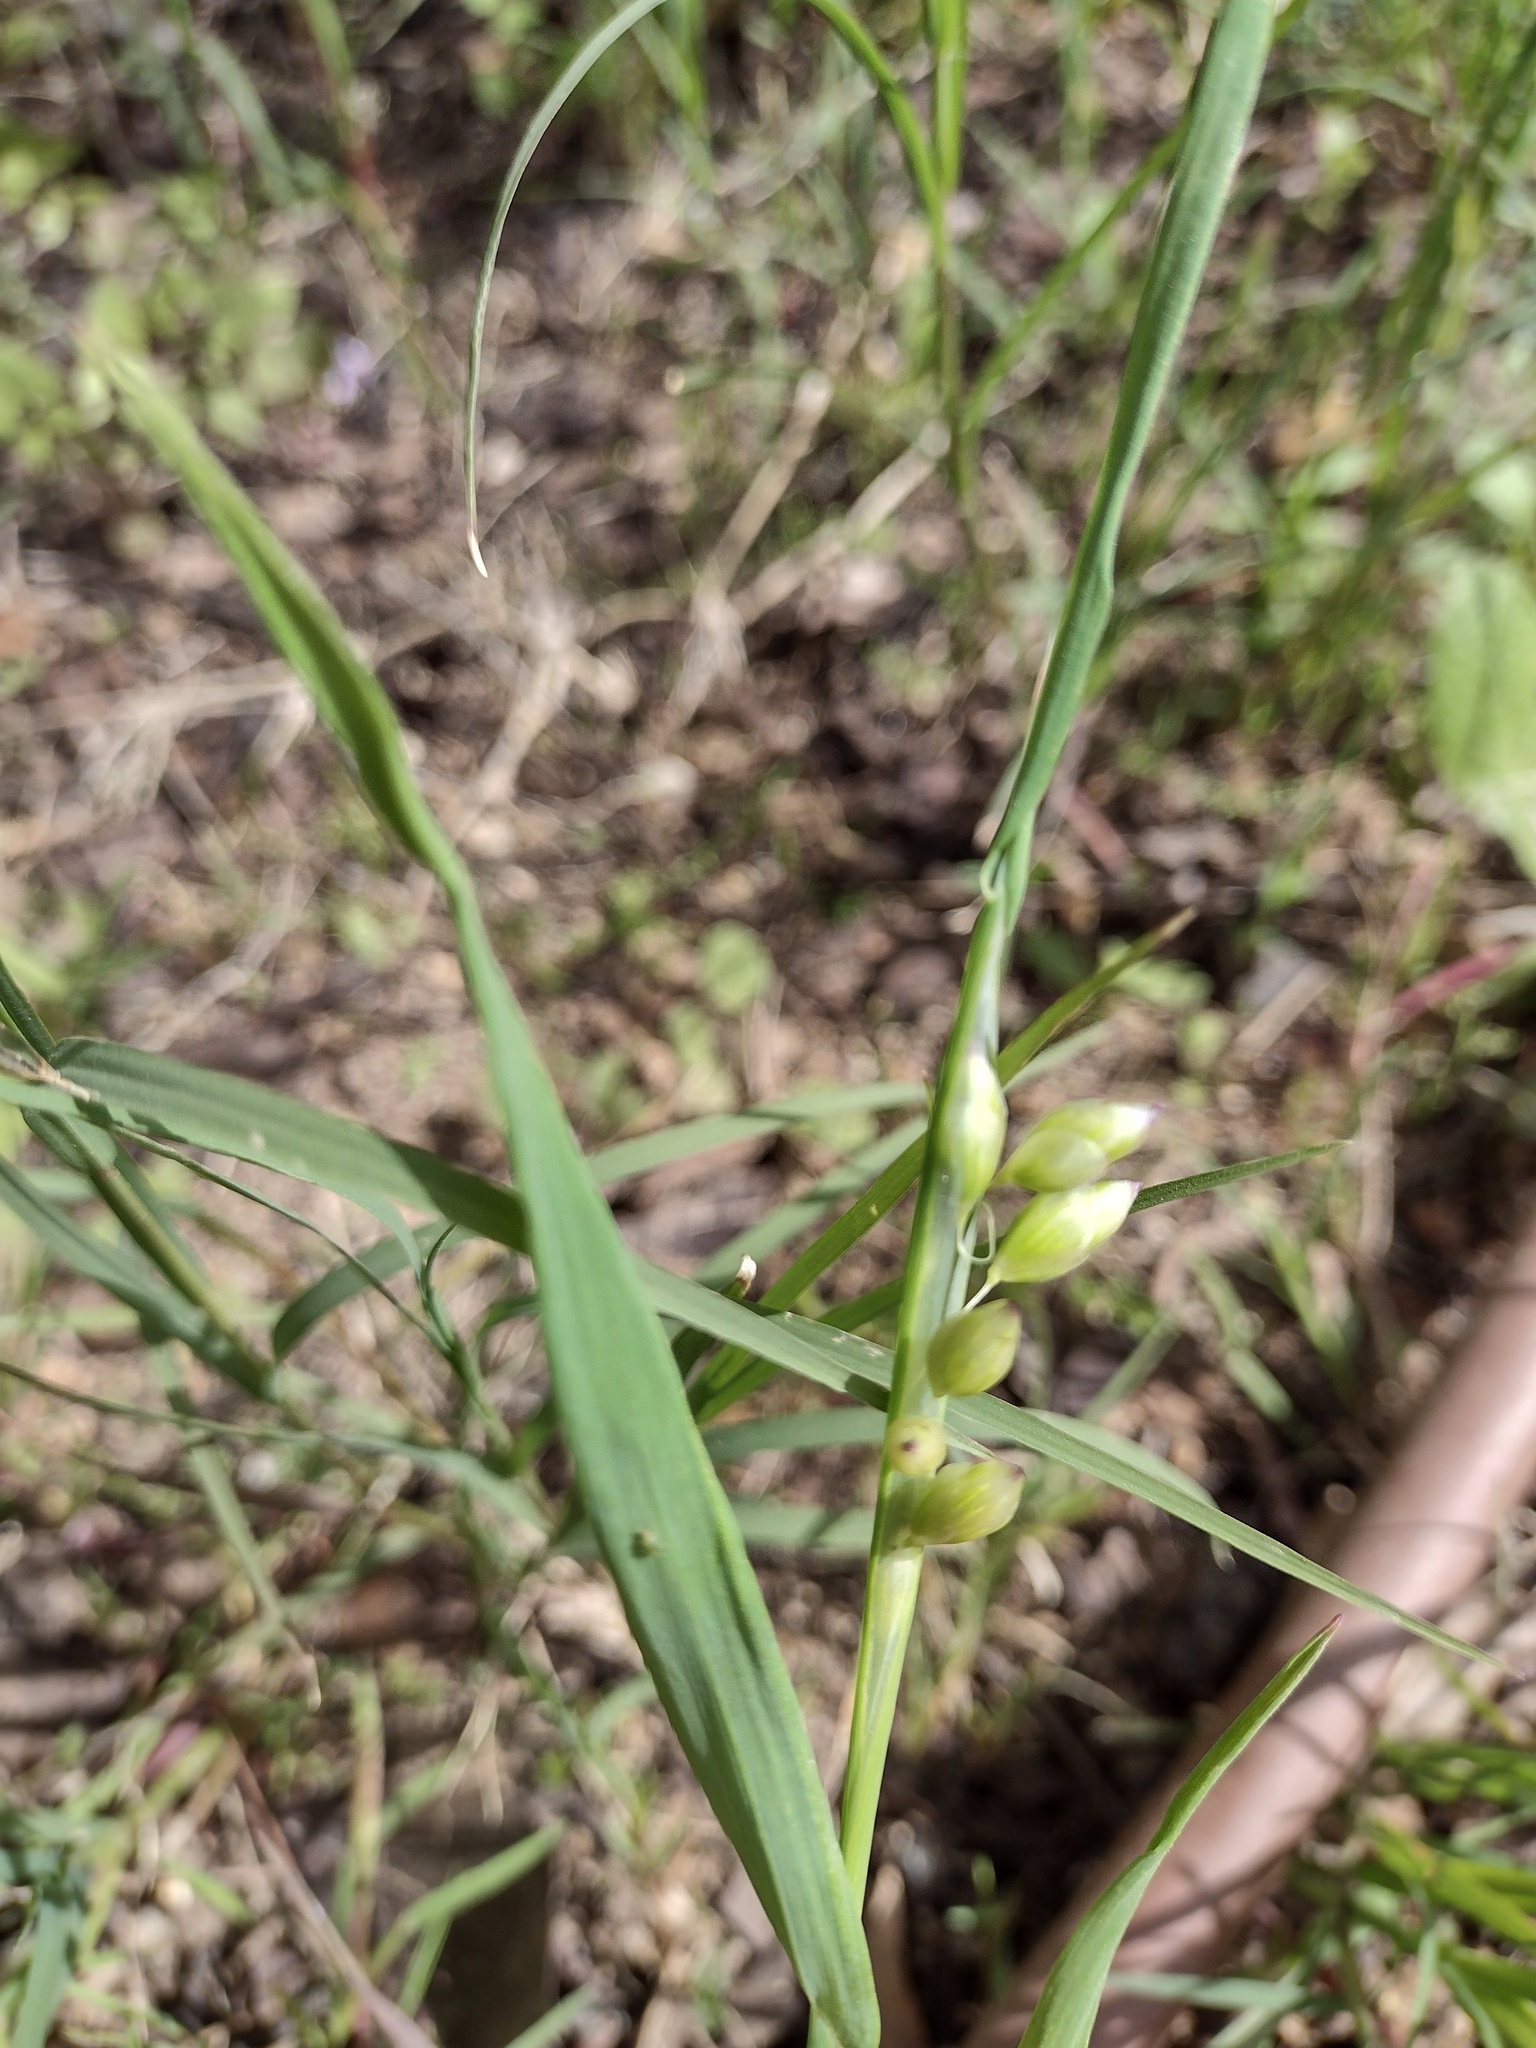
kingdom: Plantae
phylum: Tracheophyta
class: Liliopsida
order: Poales
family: Poaceae
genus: Briza
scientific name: Briza maxima
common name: Big quakinggrass
